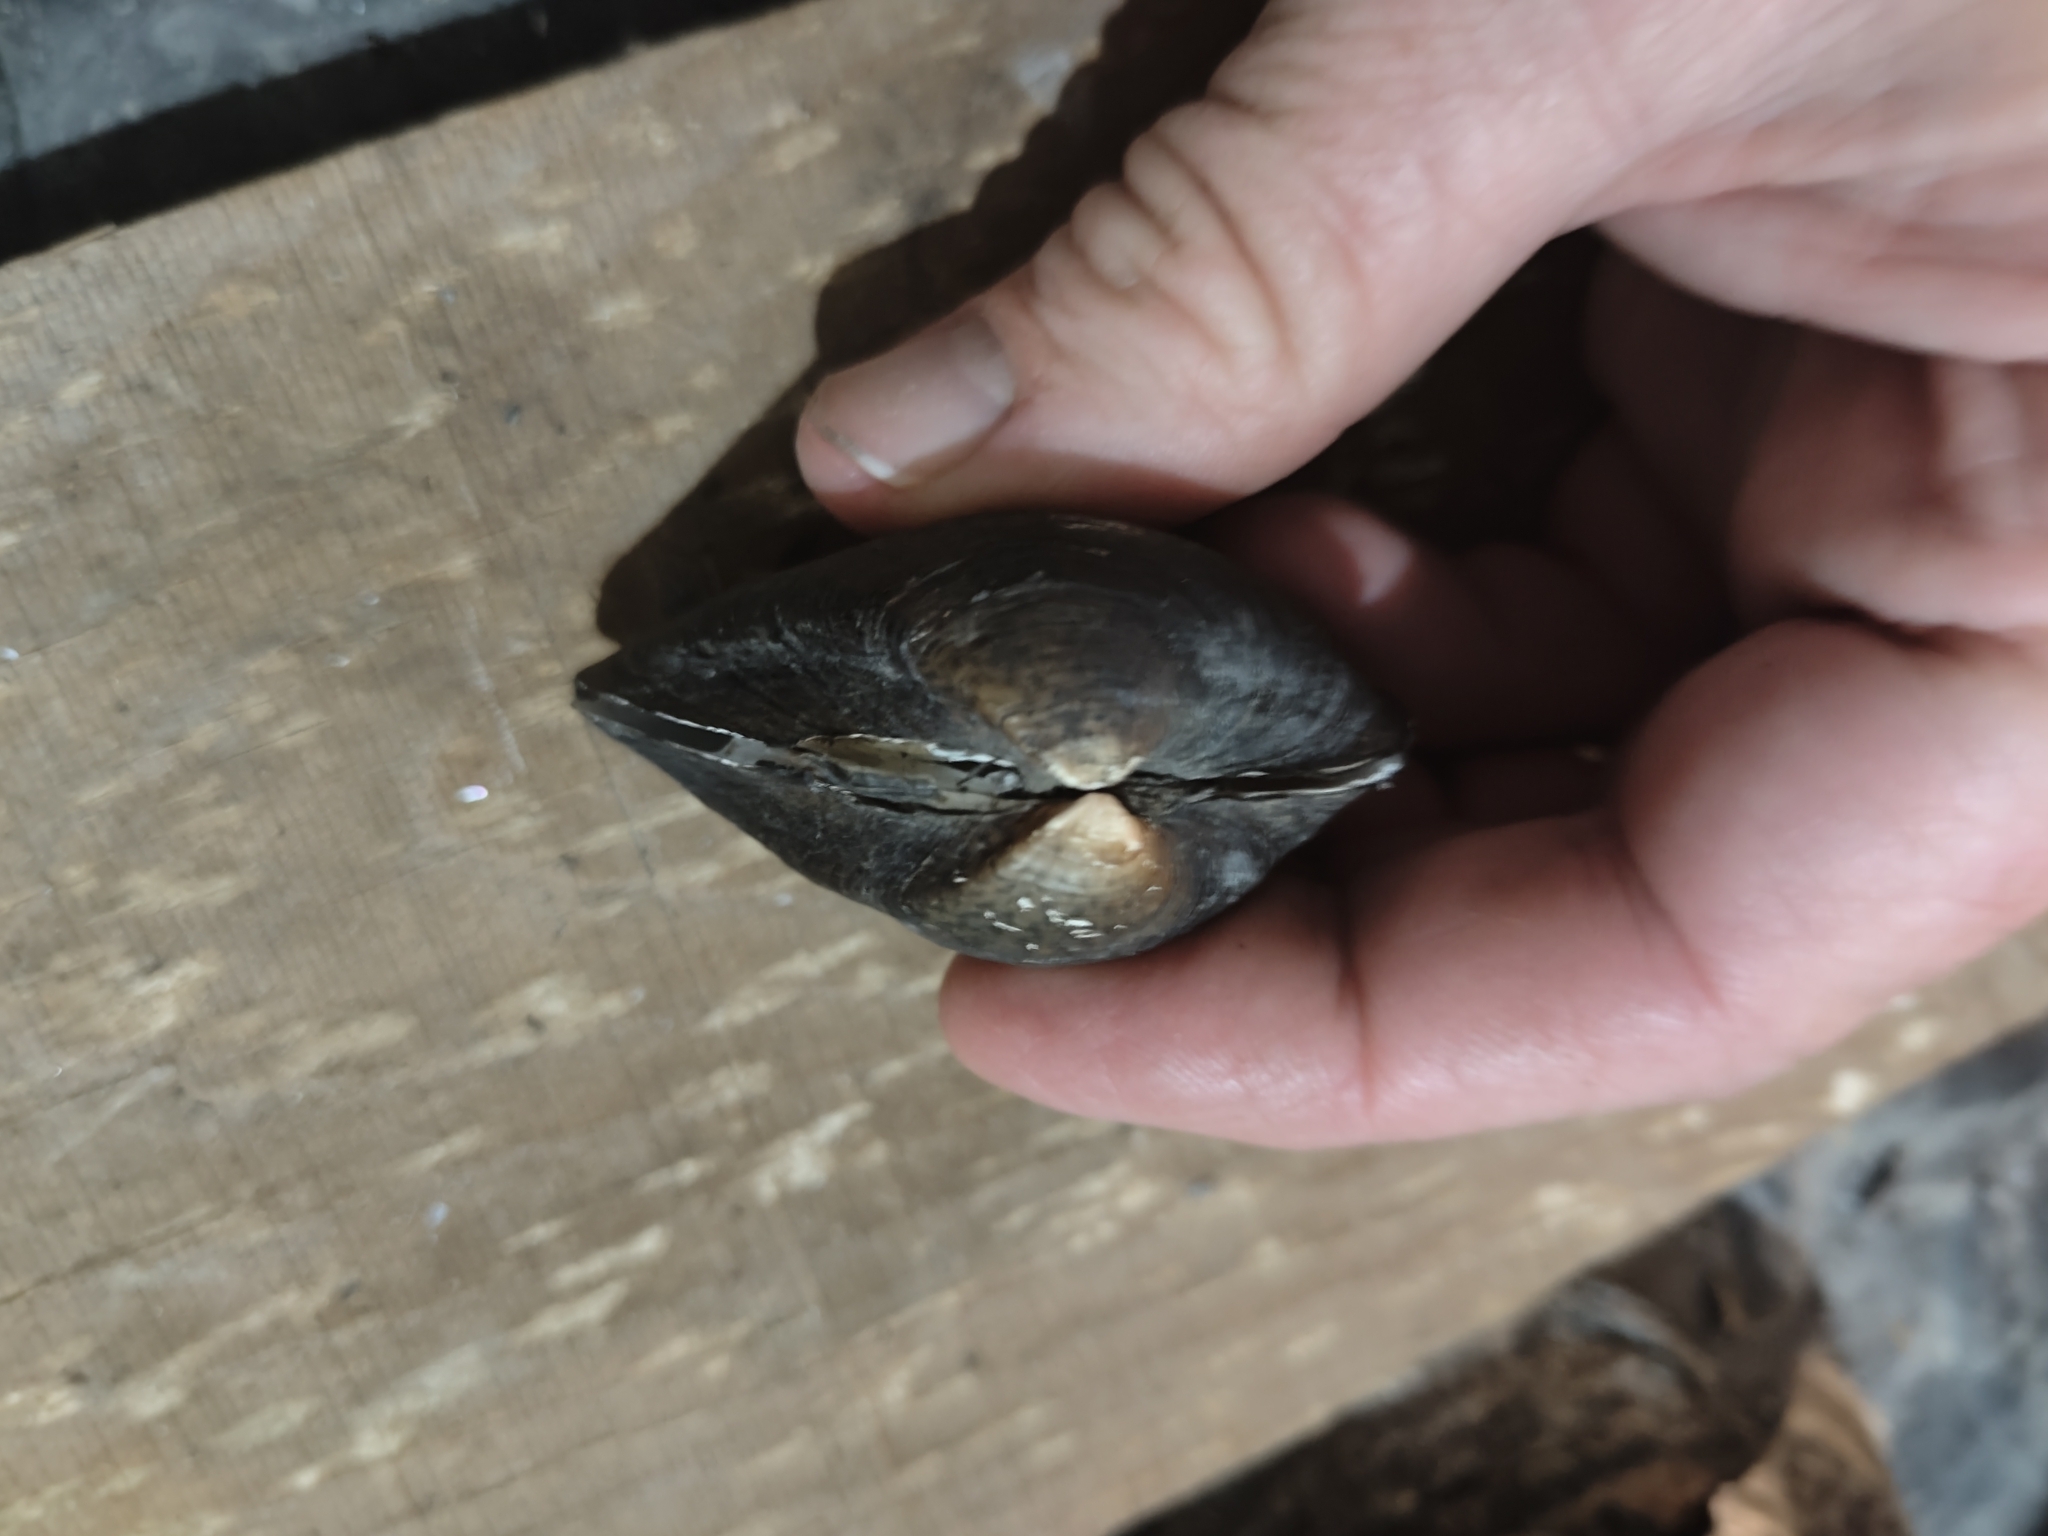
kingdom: Animalia
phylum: Mollusca
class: Bivalvia
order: Unionida
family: Unionidae
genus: Truncilla
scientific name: Truncilla truncata
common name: Deertoe
